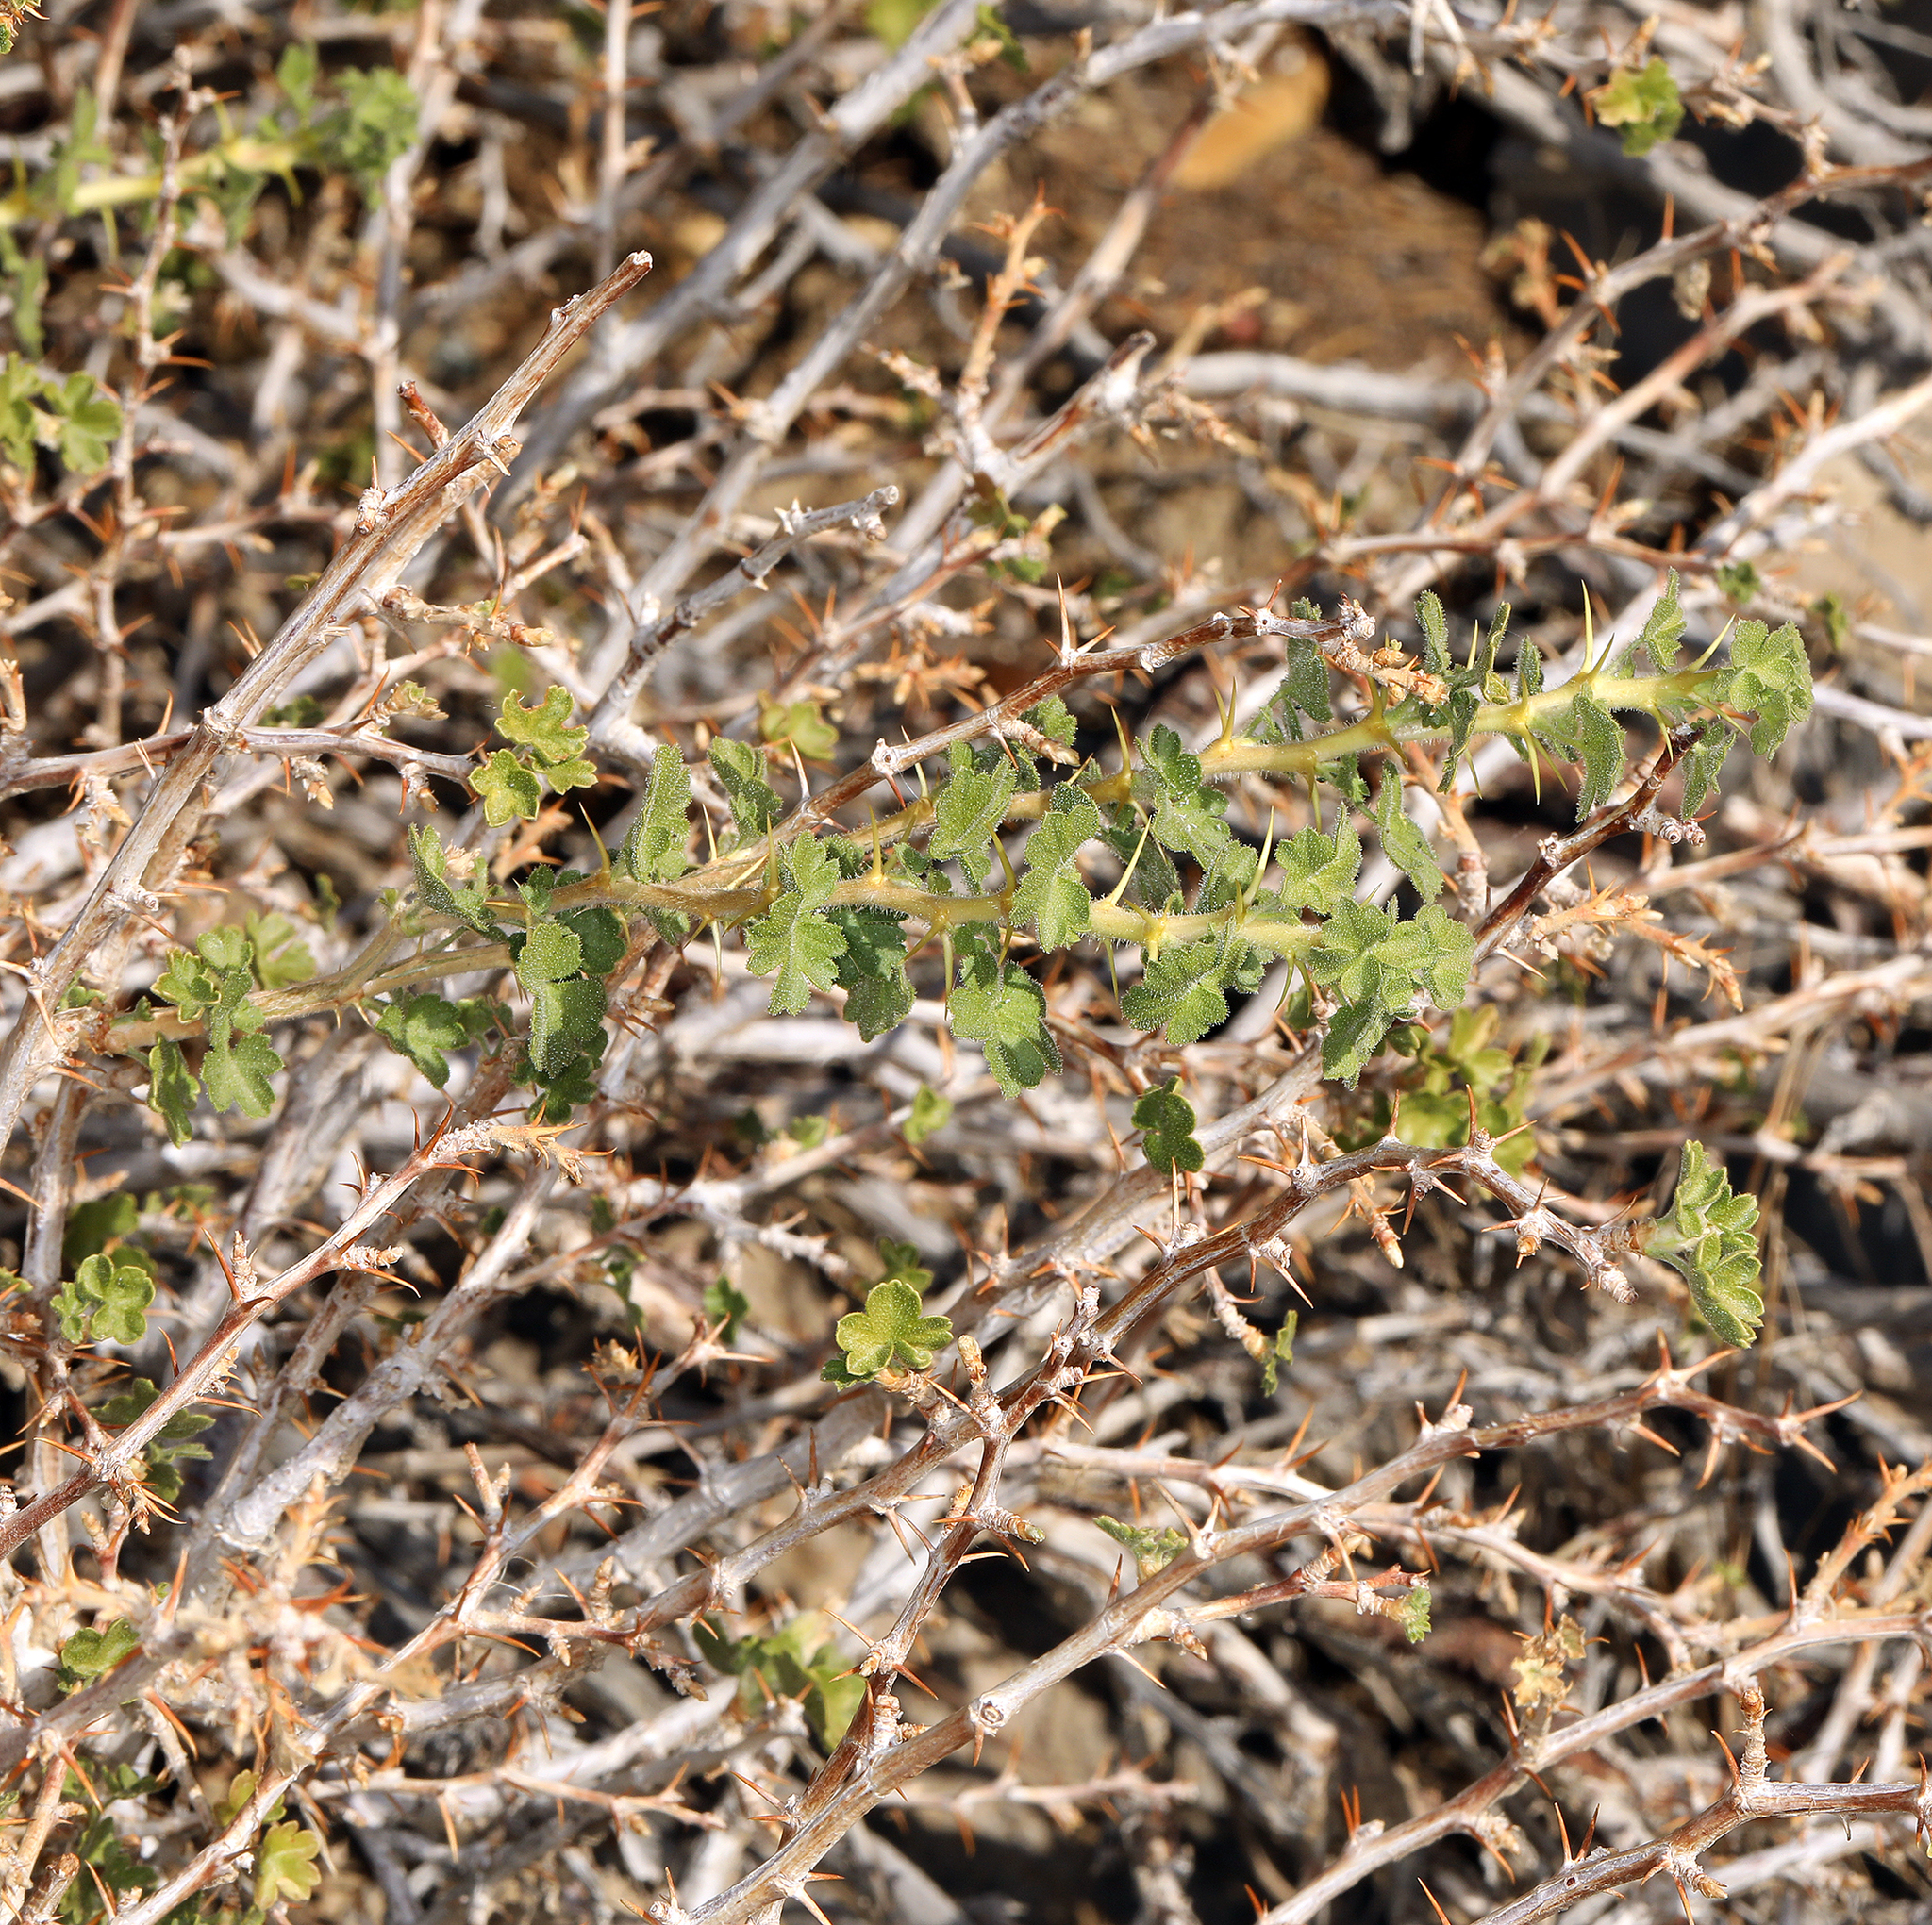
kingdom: Plantae
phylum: Tracheophyta
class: Magnoliopsida
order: Saxifragales
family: Grossulariaceae
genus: Ribes
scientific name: Ribes velutinum
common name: Desert gooseberry
